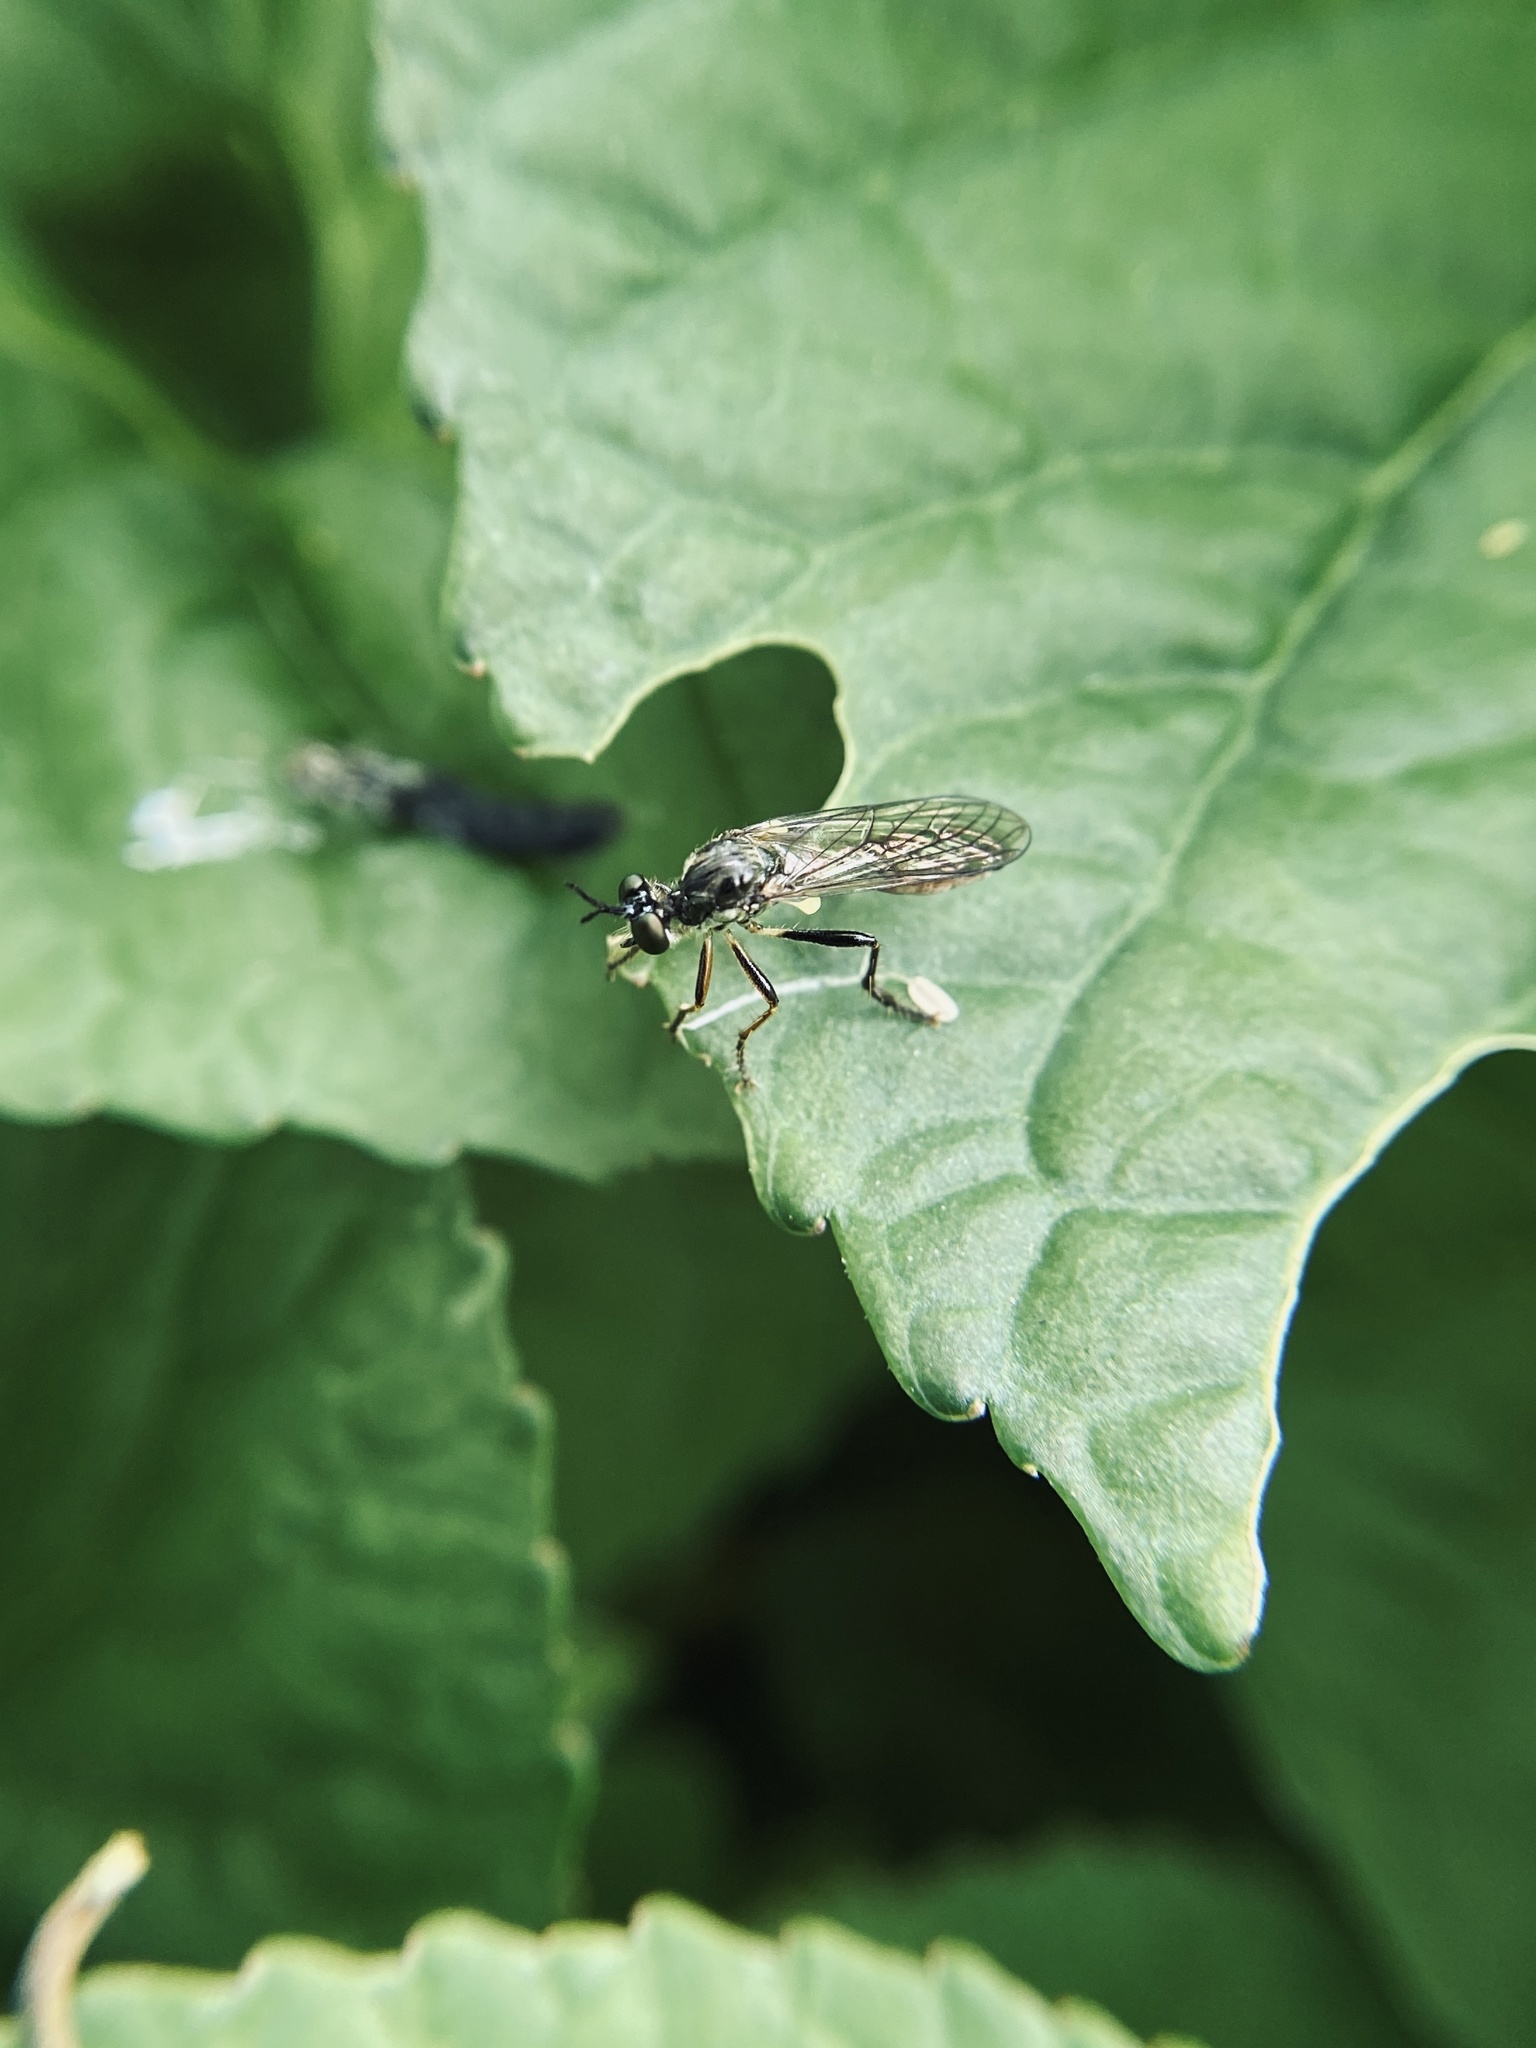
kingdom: Animalia
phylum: Arthropoda
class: Insecta
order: Diptera
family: Asilidae
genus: Dioctria
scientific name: Dioctria hyalipennis
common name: Stripe-legged robberfly
